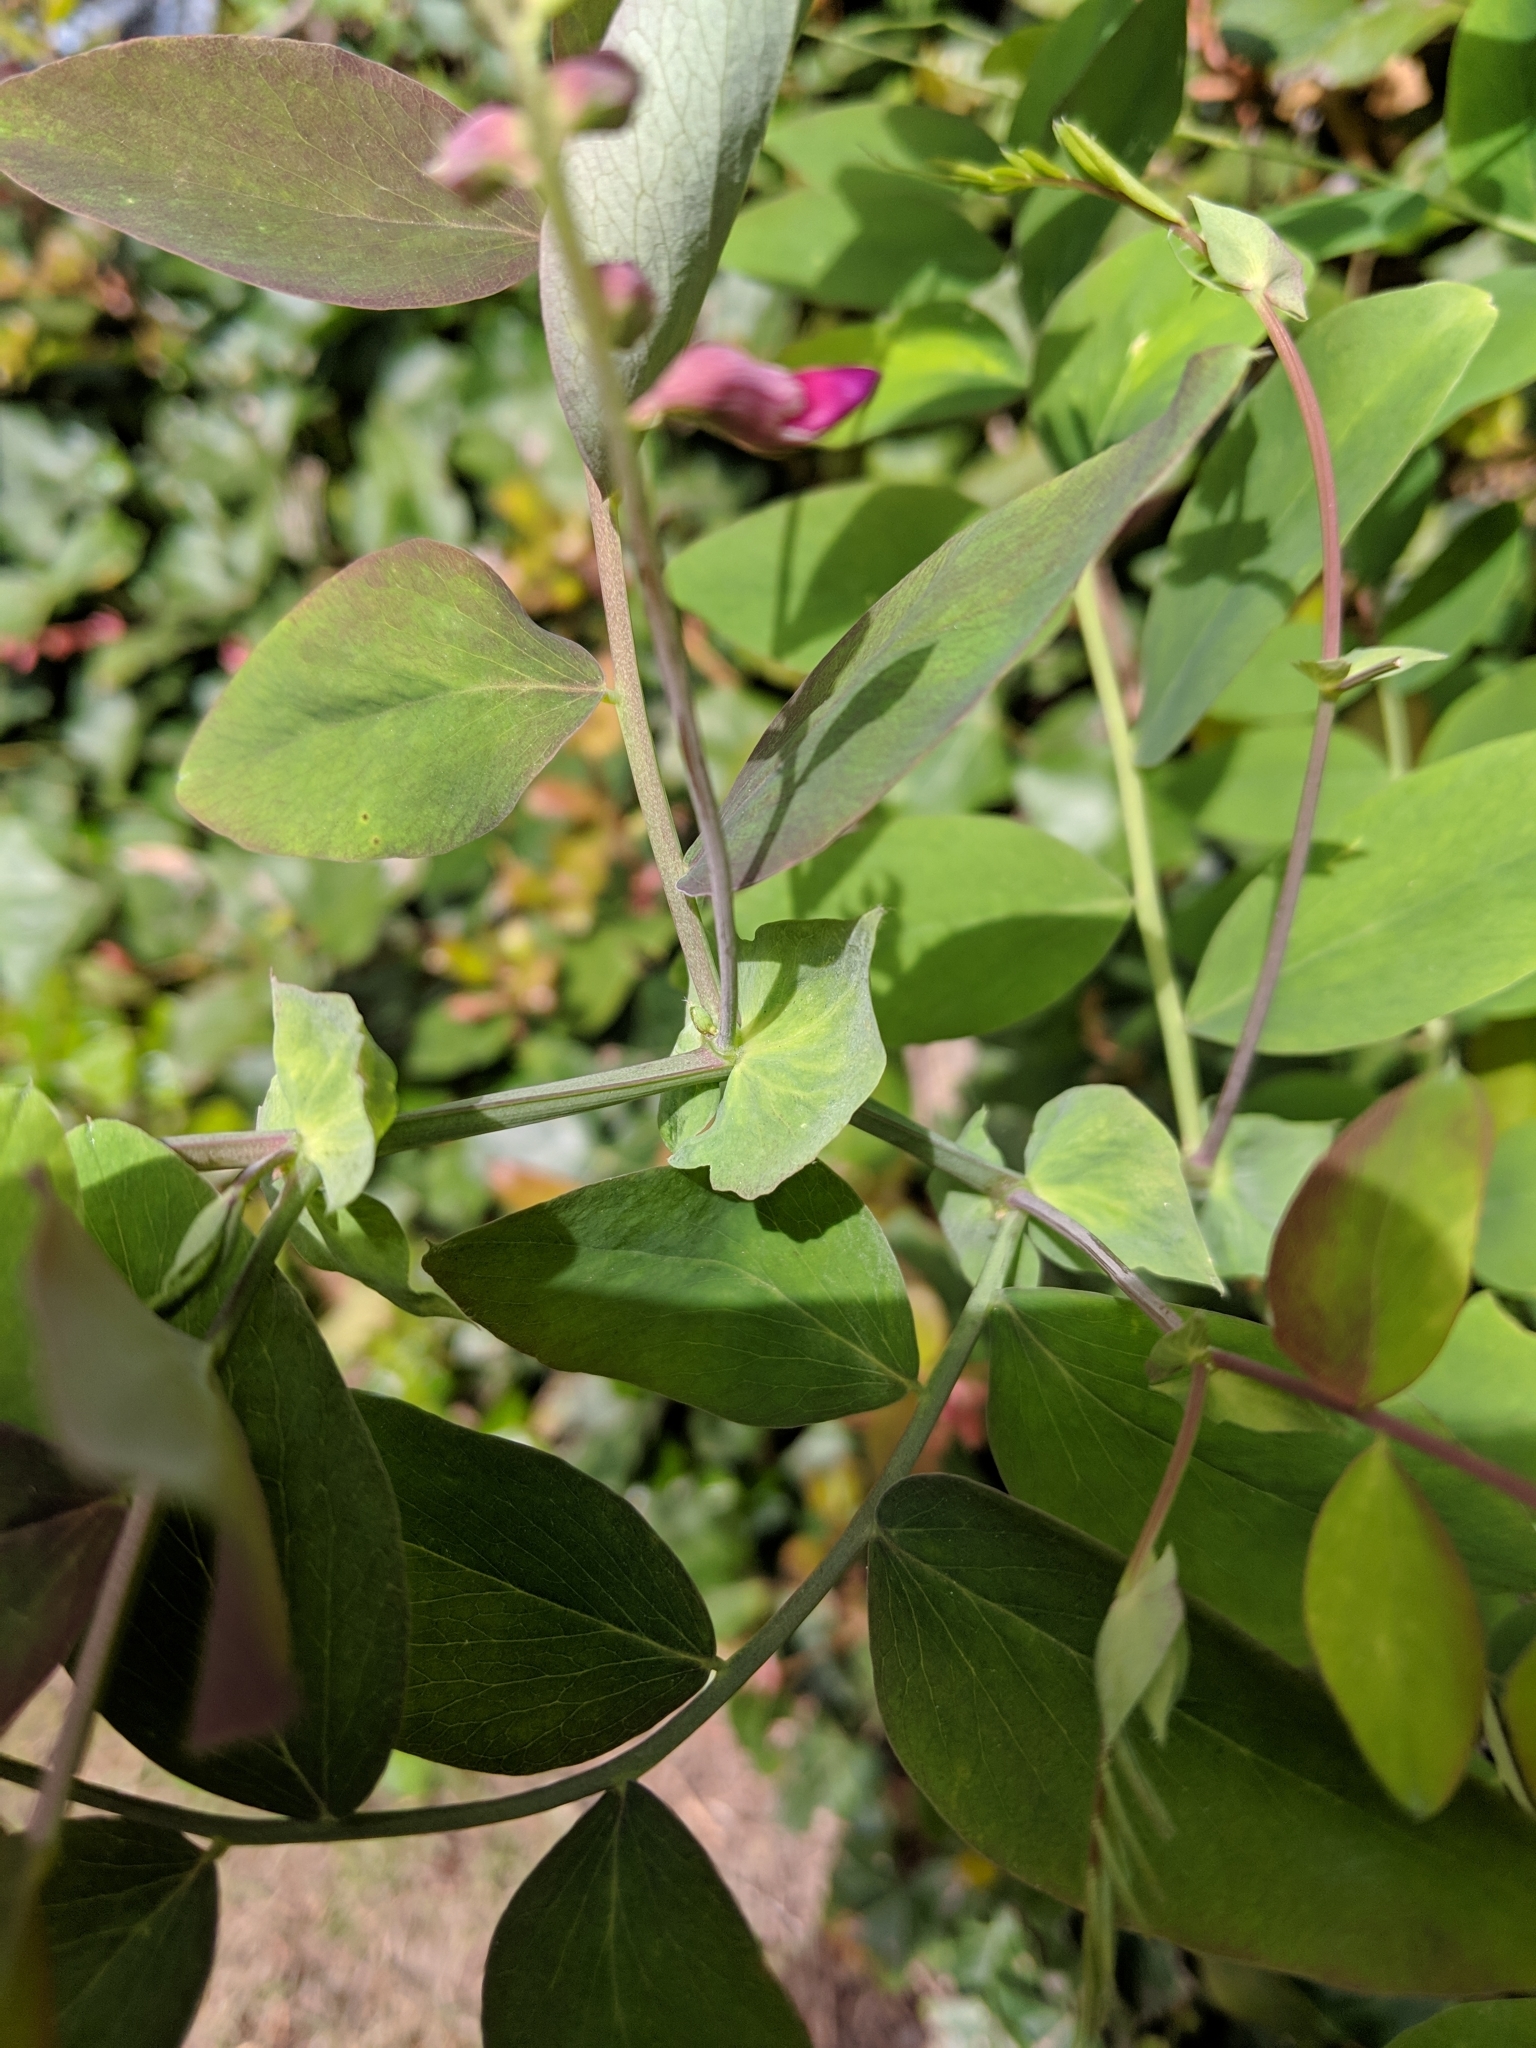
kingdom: Plantae
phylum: Tracheophyta
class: Magnoliopsida
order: Fabales
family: Fabaceae
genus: Lathyrus
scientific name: Lathyrus polyphyllus
